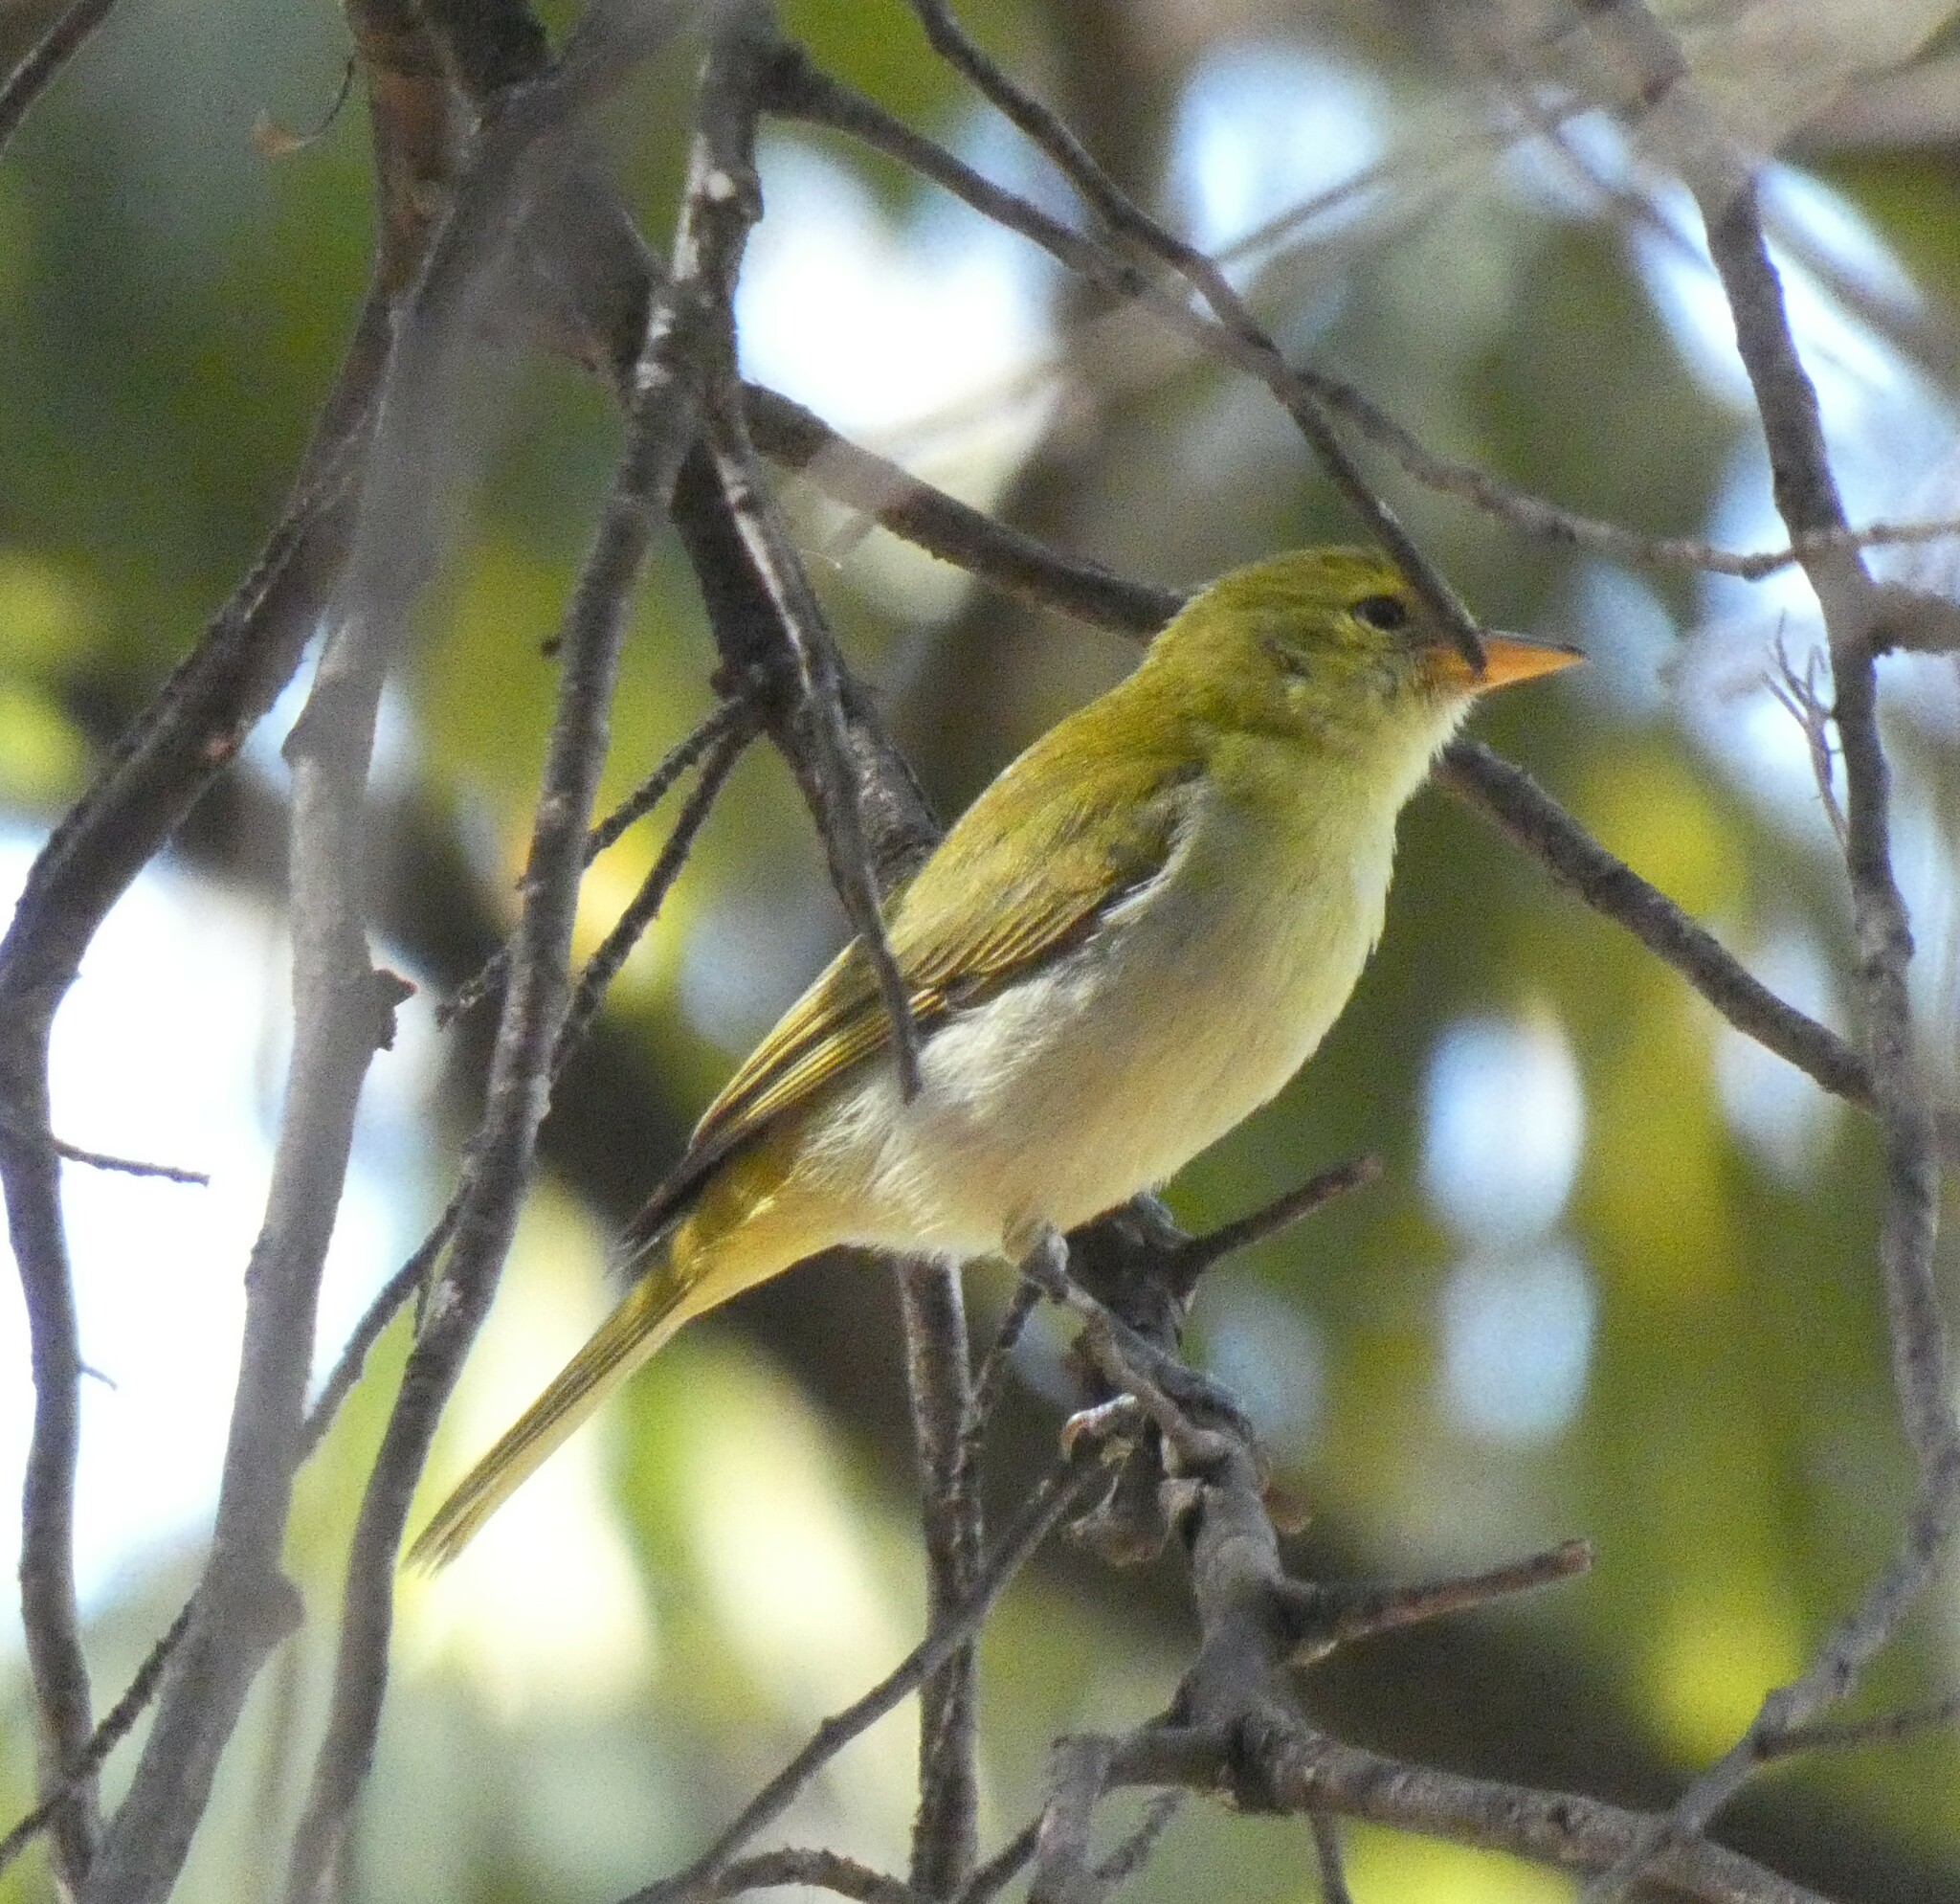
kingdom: Animalia
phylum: Chordata
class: Aves
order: Passeriformes
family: Thraupidae
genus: Hemithraupis
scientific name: Hemithraupis ruficapilla
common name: Rufous-headed tanager
